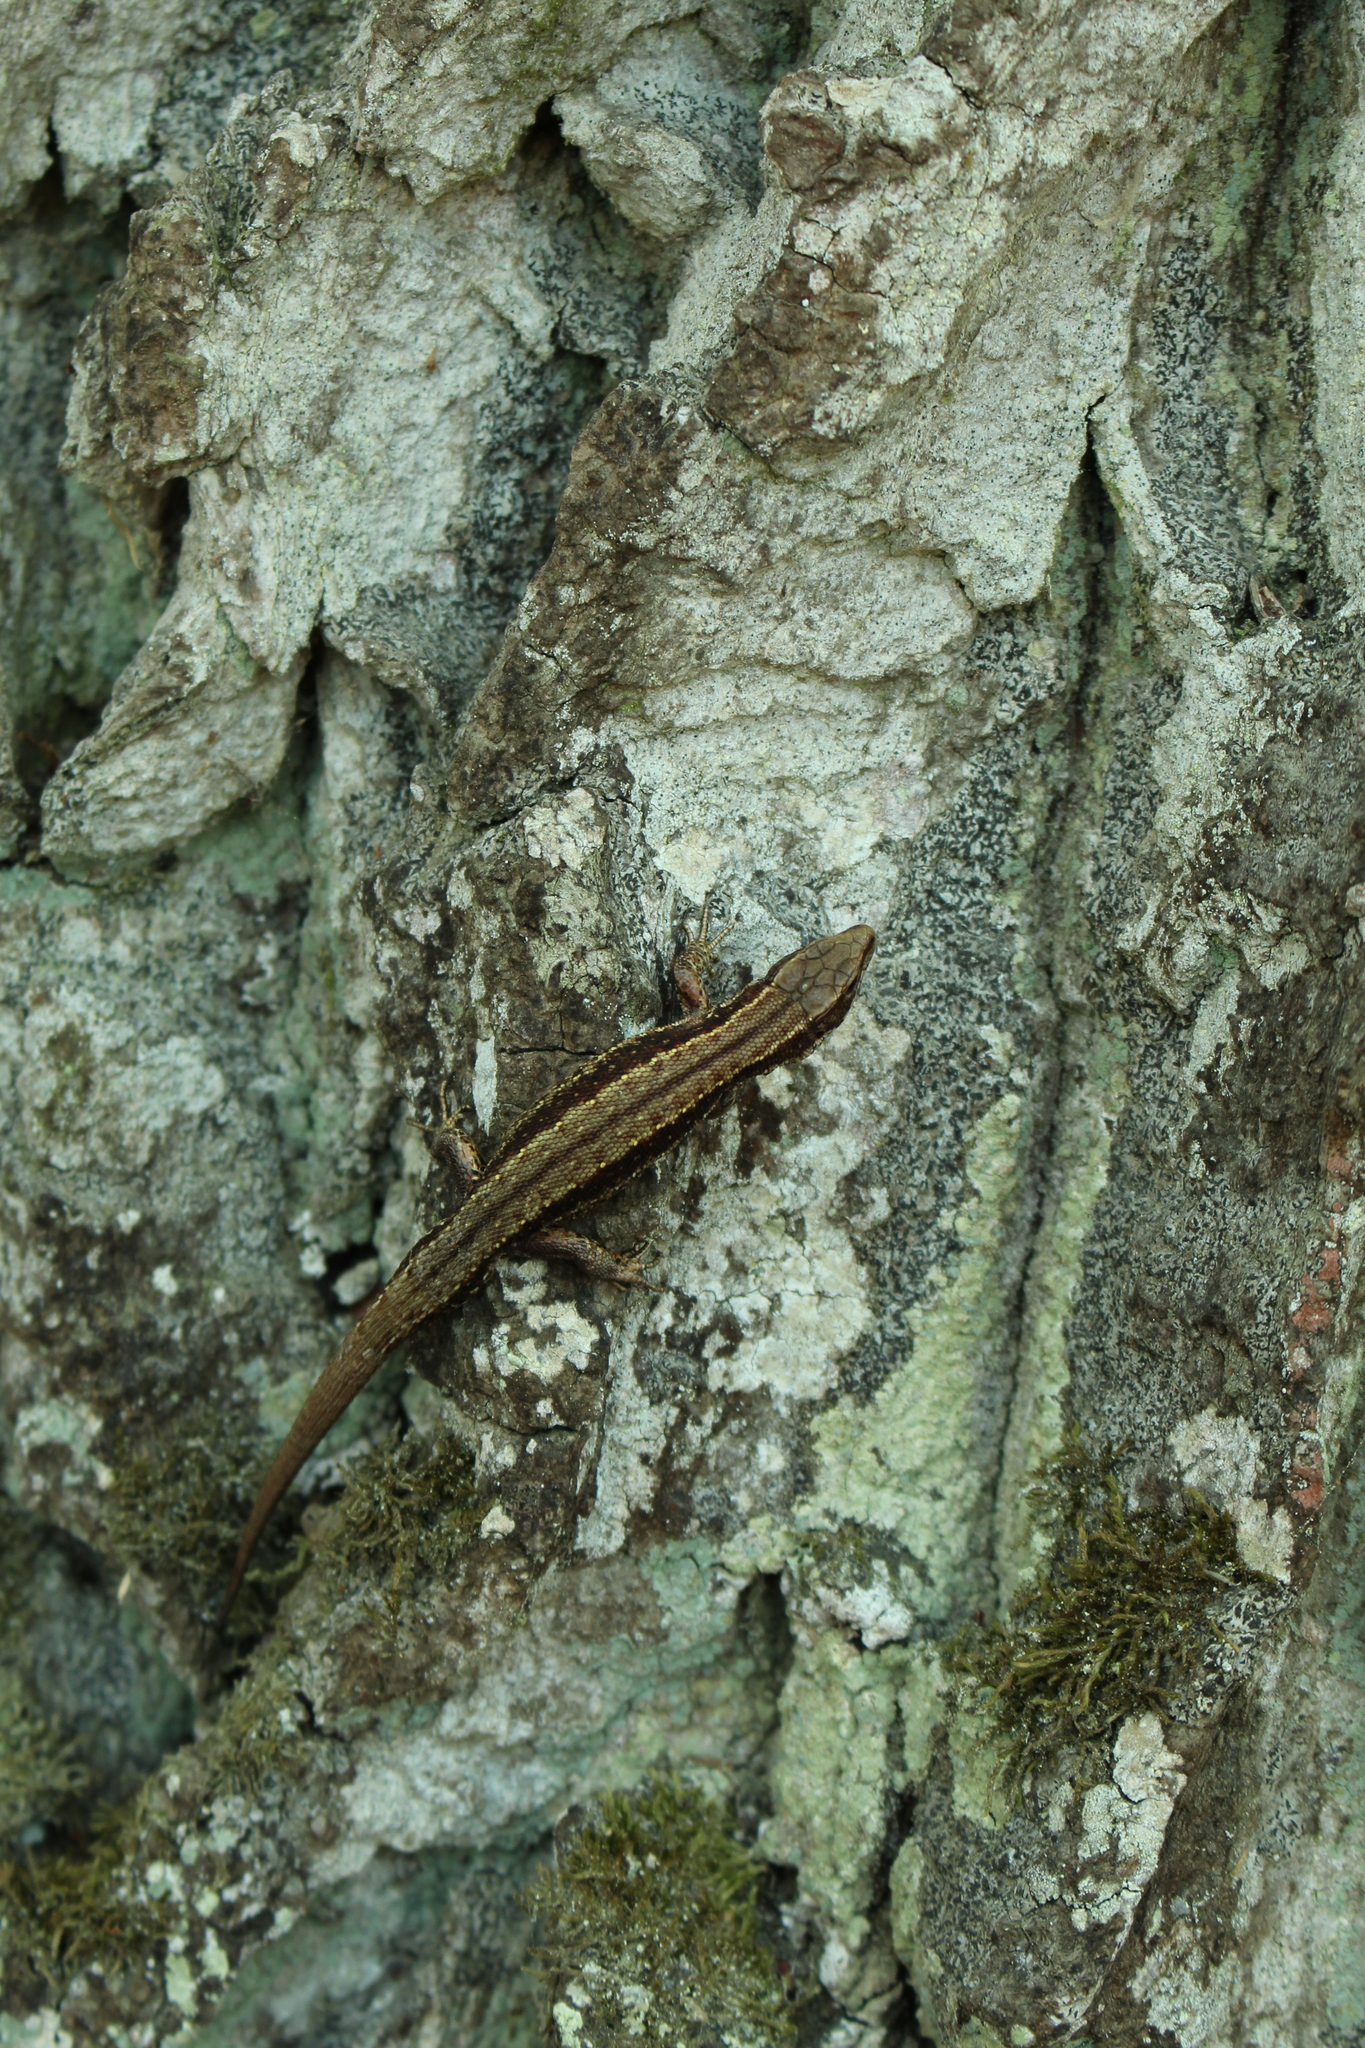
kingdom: Animalia
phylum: Chordata
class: Squamata
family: Lacertidae
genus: Zootoca
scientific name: Zootoca vivipara
